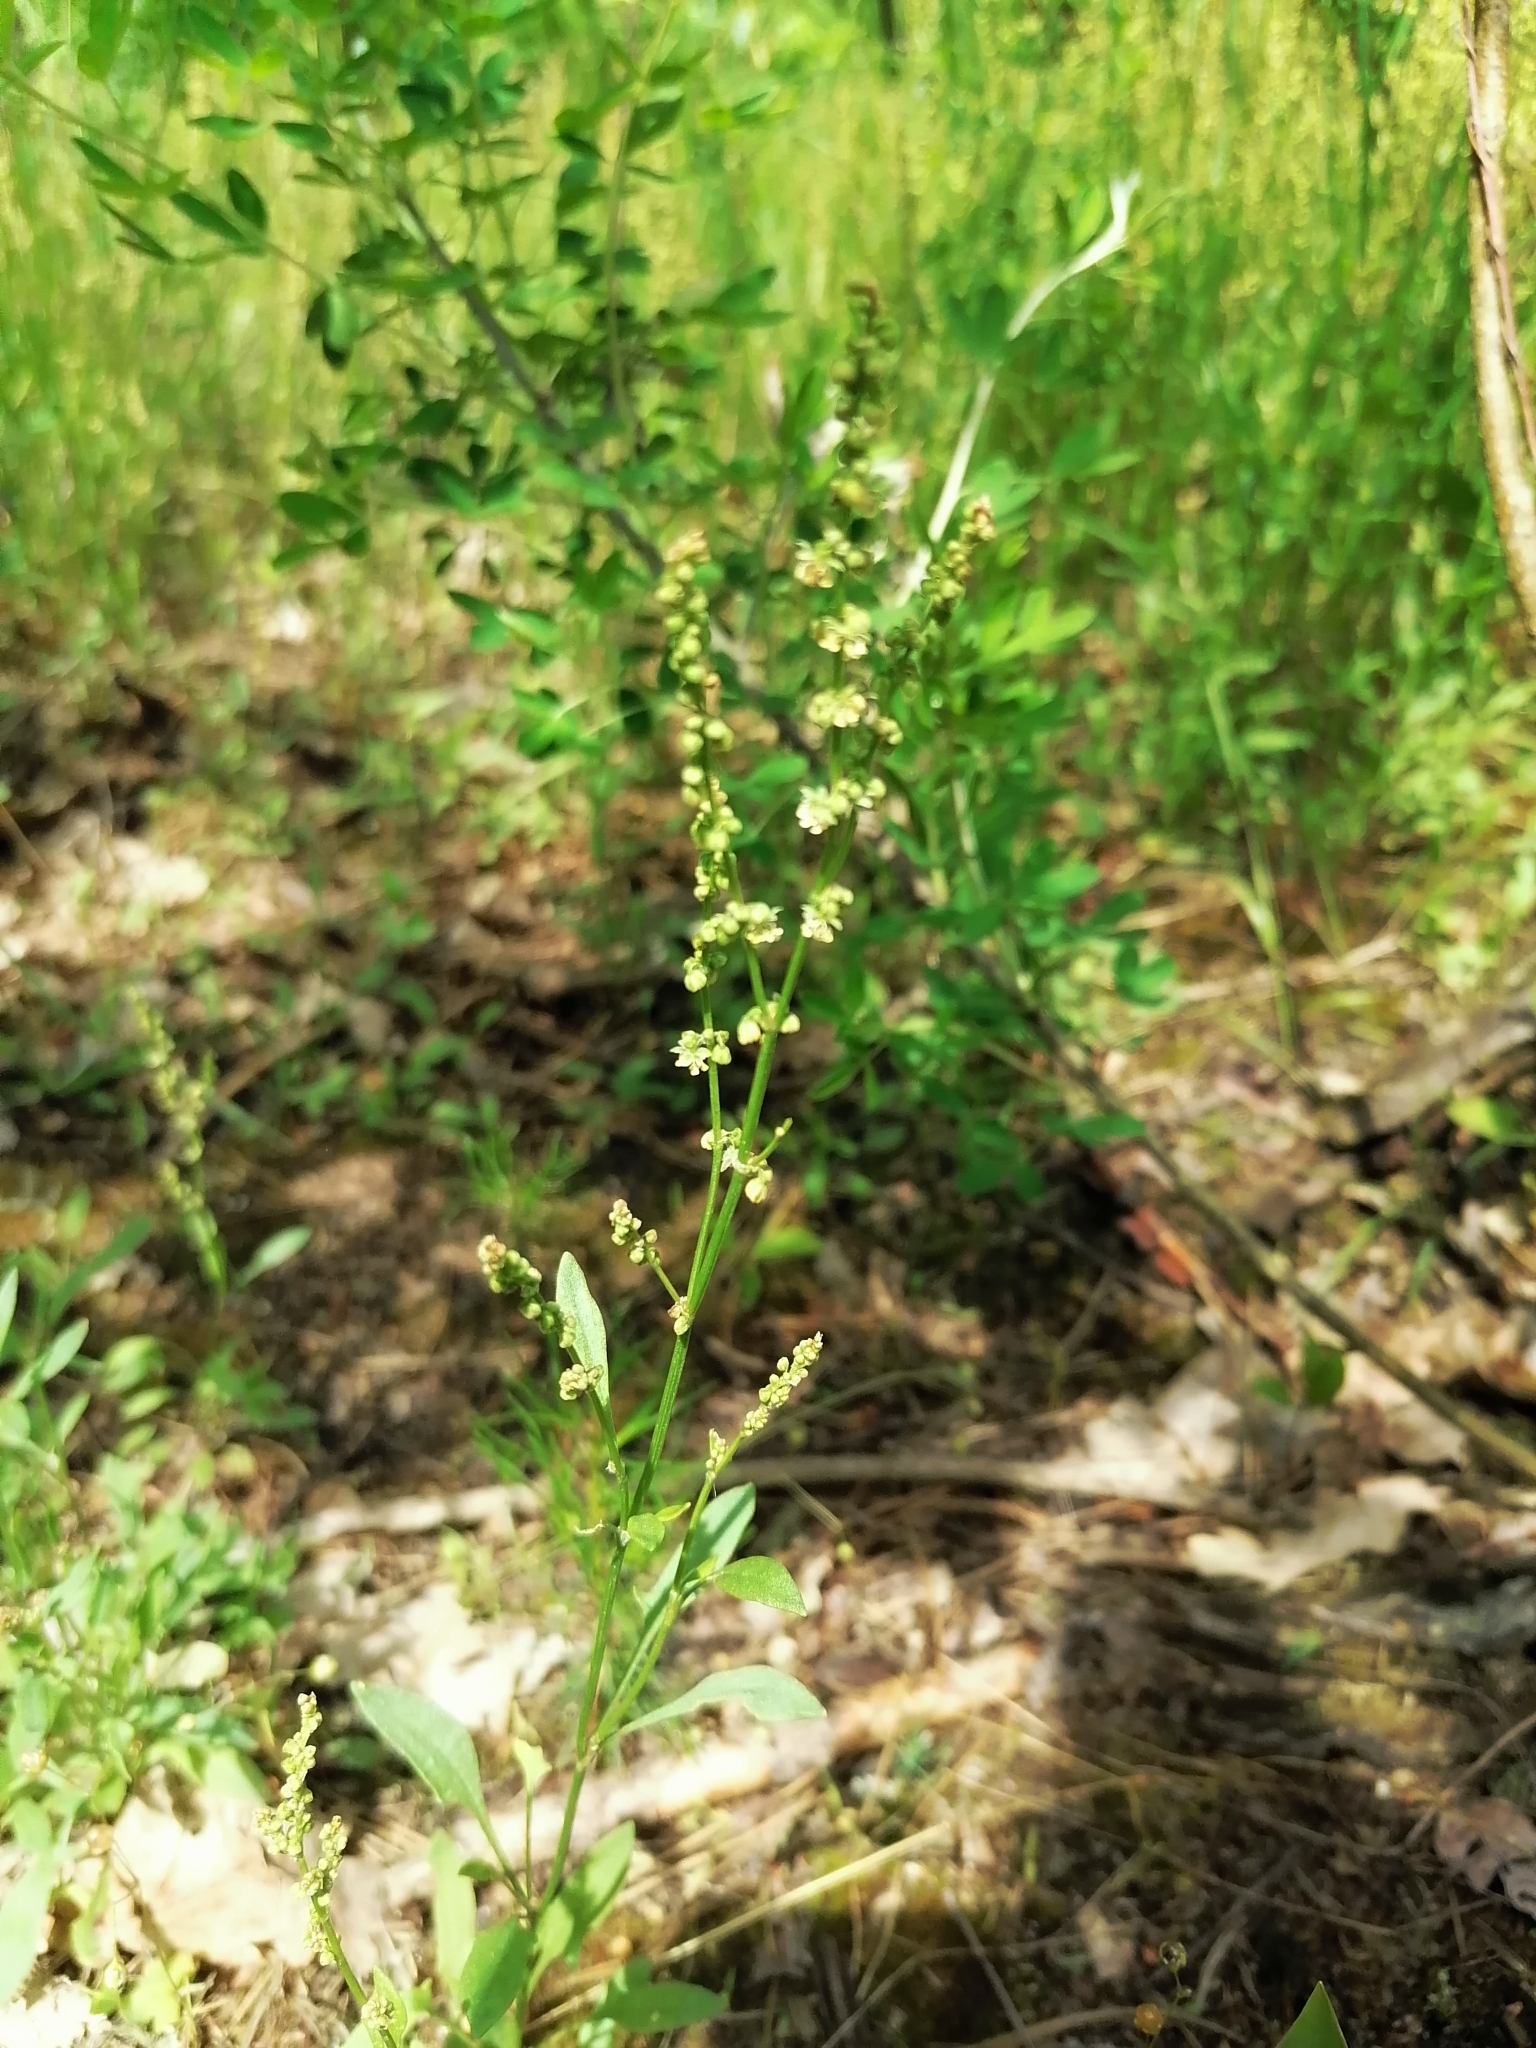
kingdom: Plantae
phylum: Tracheophyta
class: Magnoliopsida
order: Caryophyllales
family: Polygonaceae
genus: Rumex
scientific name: Rumex acetosella
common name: Common sheep sorrel
